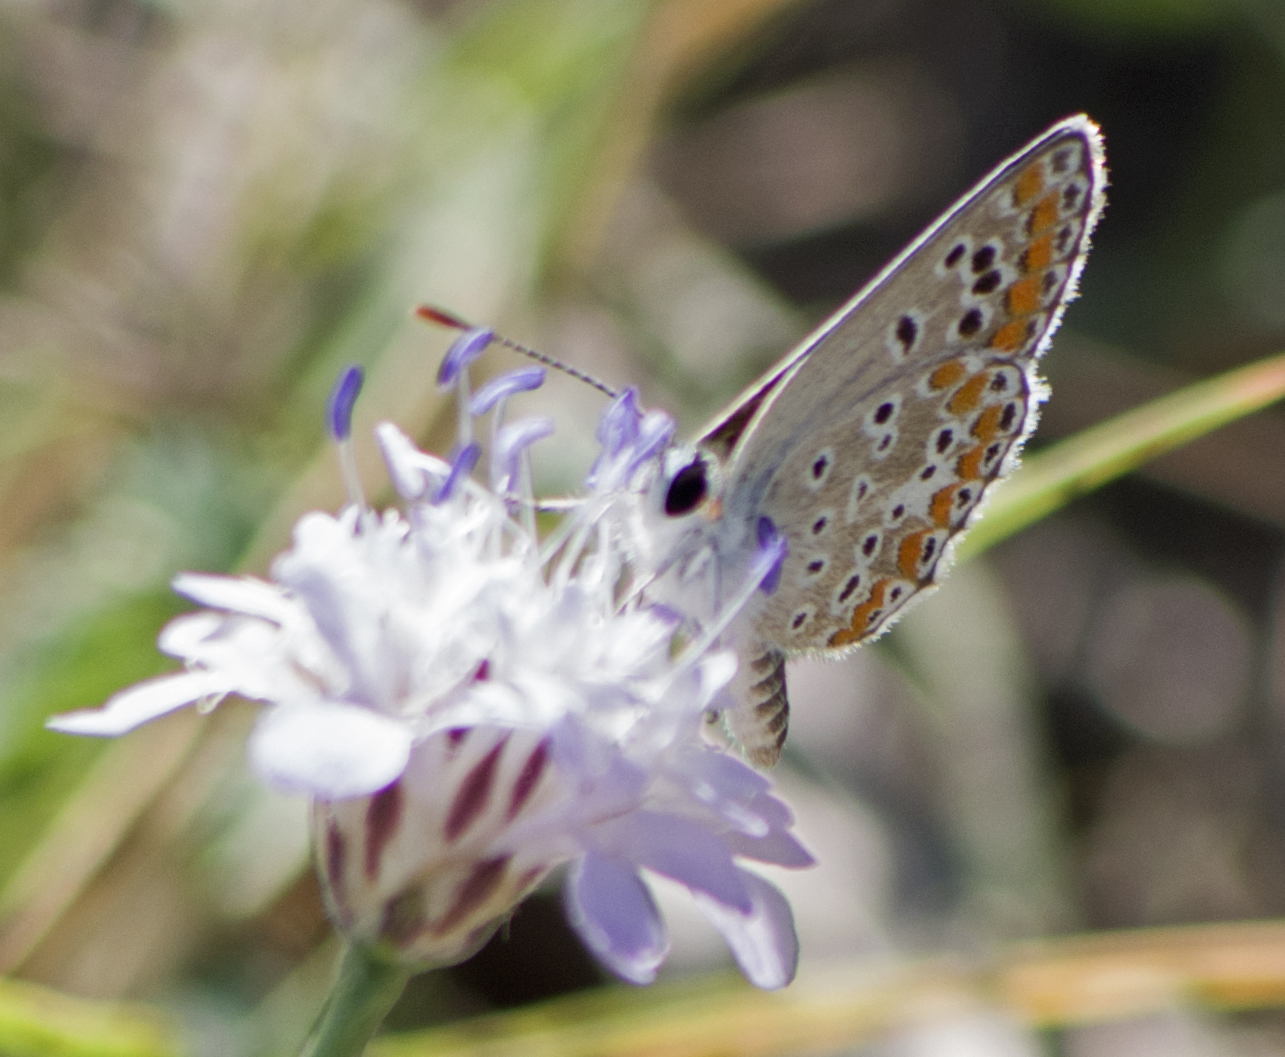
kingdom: Animalia
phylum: Arthropoda
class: Insecta
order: Lepidoptera
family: Lycaenidae
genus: Aricia
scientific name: Aricia agestis
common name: Brown argus
